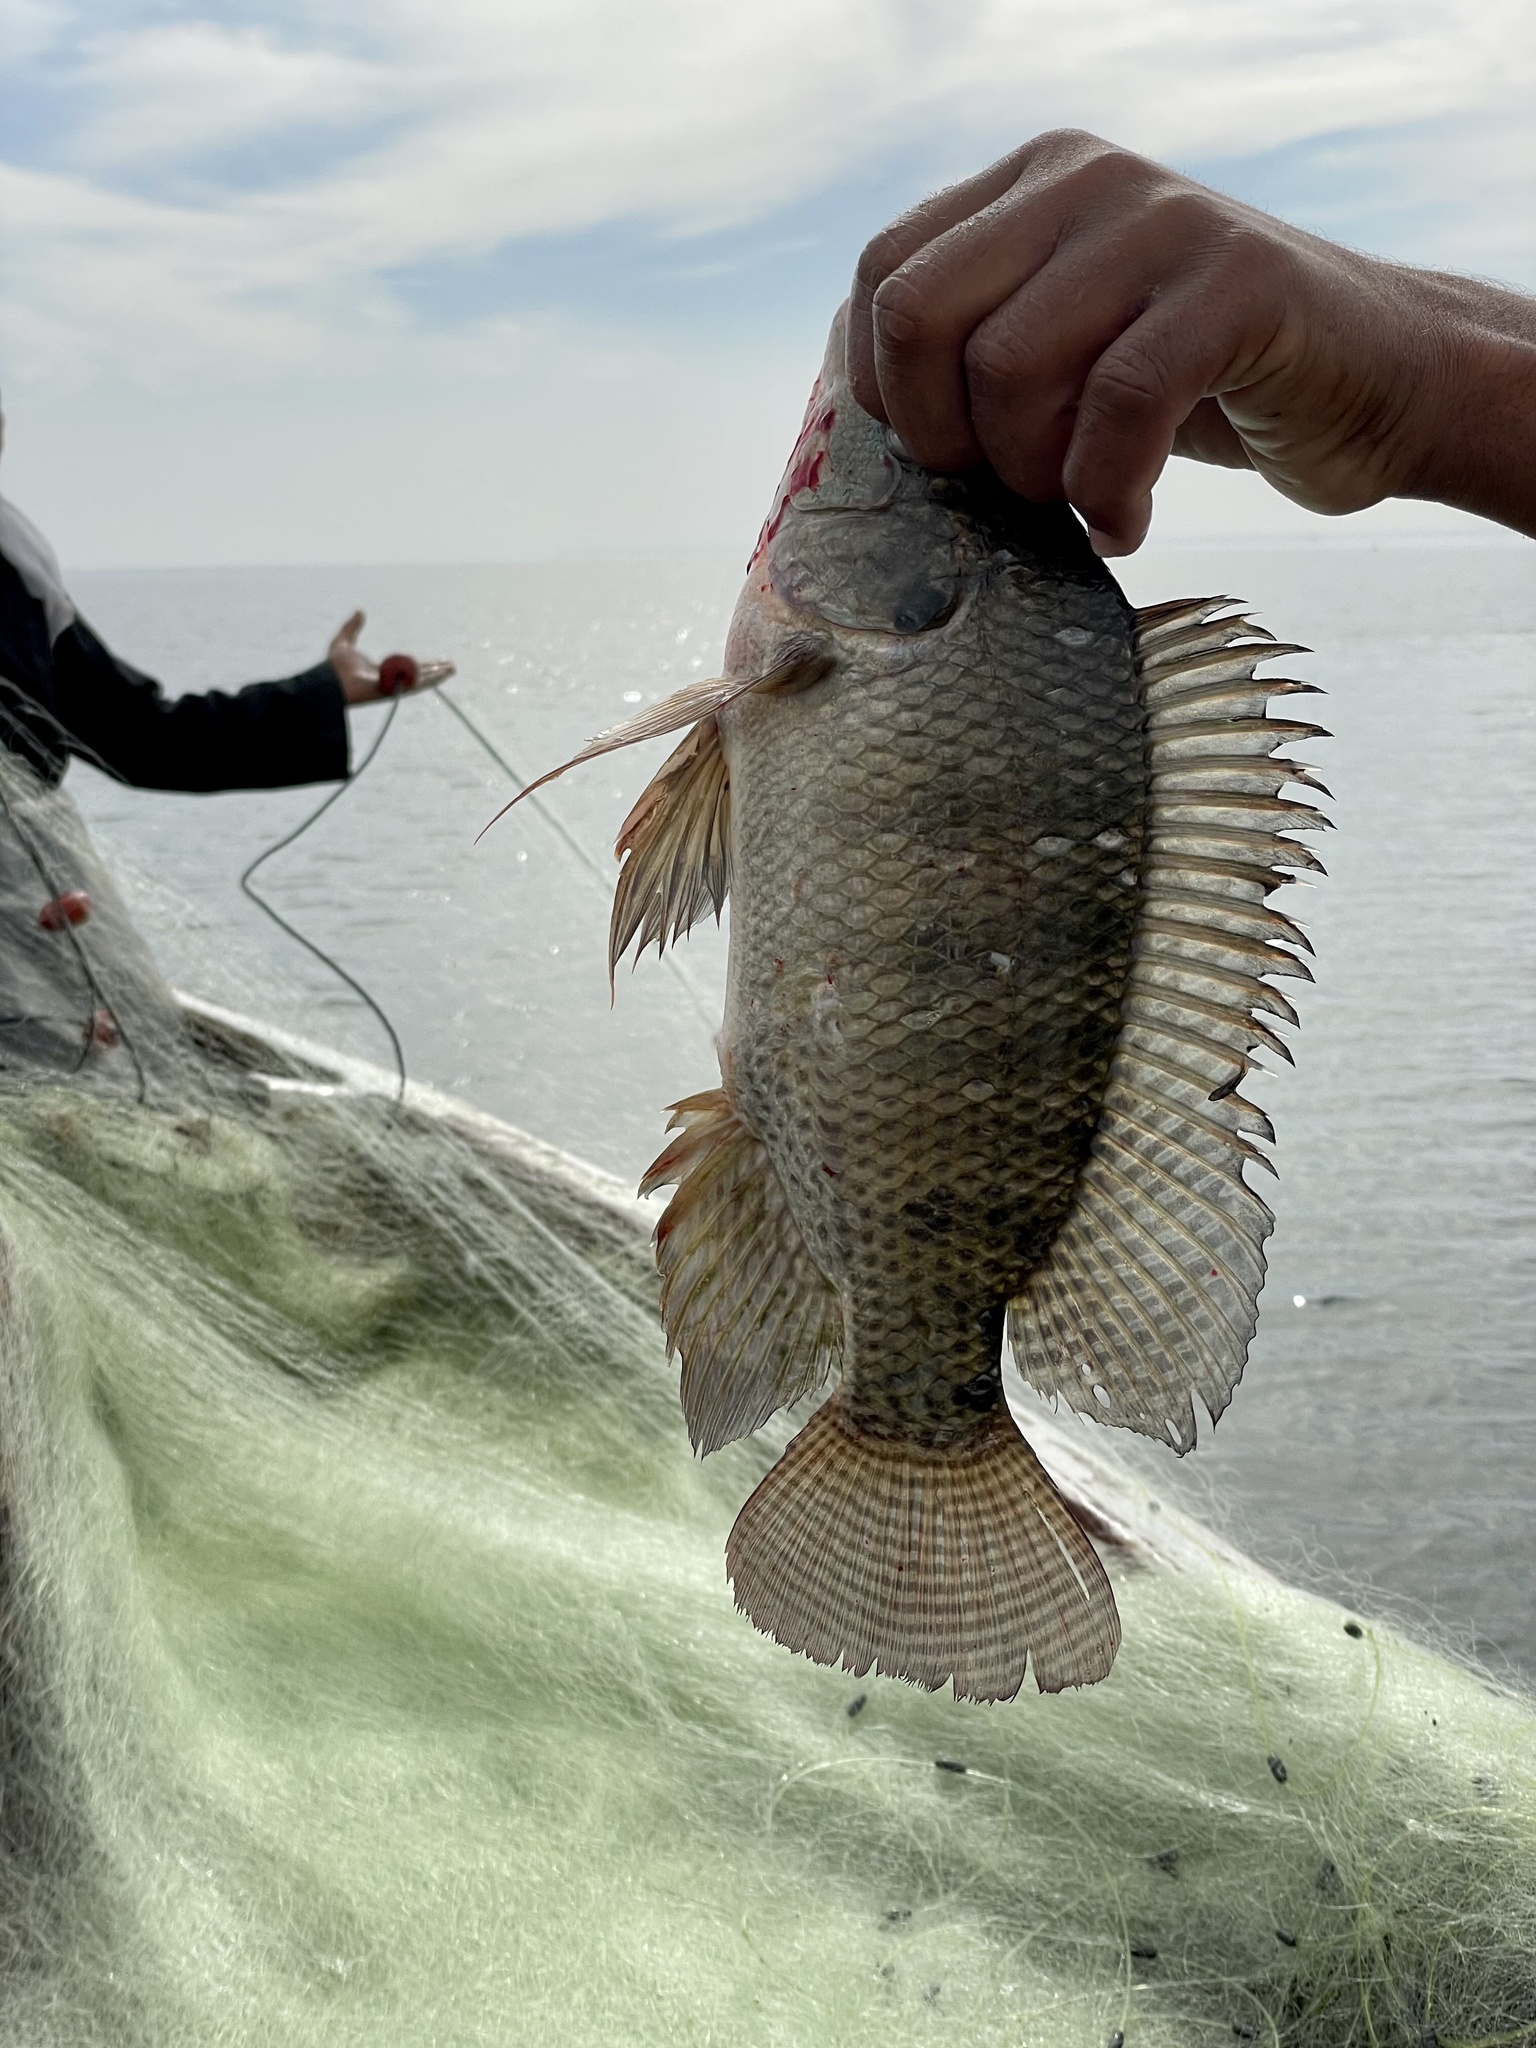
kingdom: Animalia
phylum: Chordata
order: Perciformes
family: Cichlidae
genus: Oreochromis
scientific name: Oreochromis niloticus
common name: Nile tilapia
